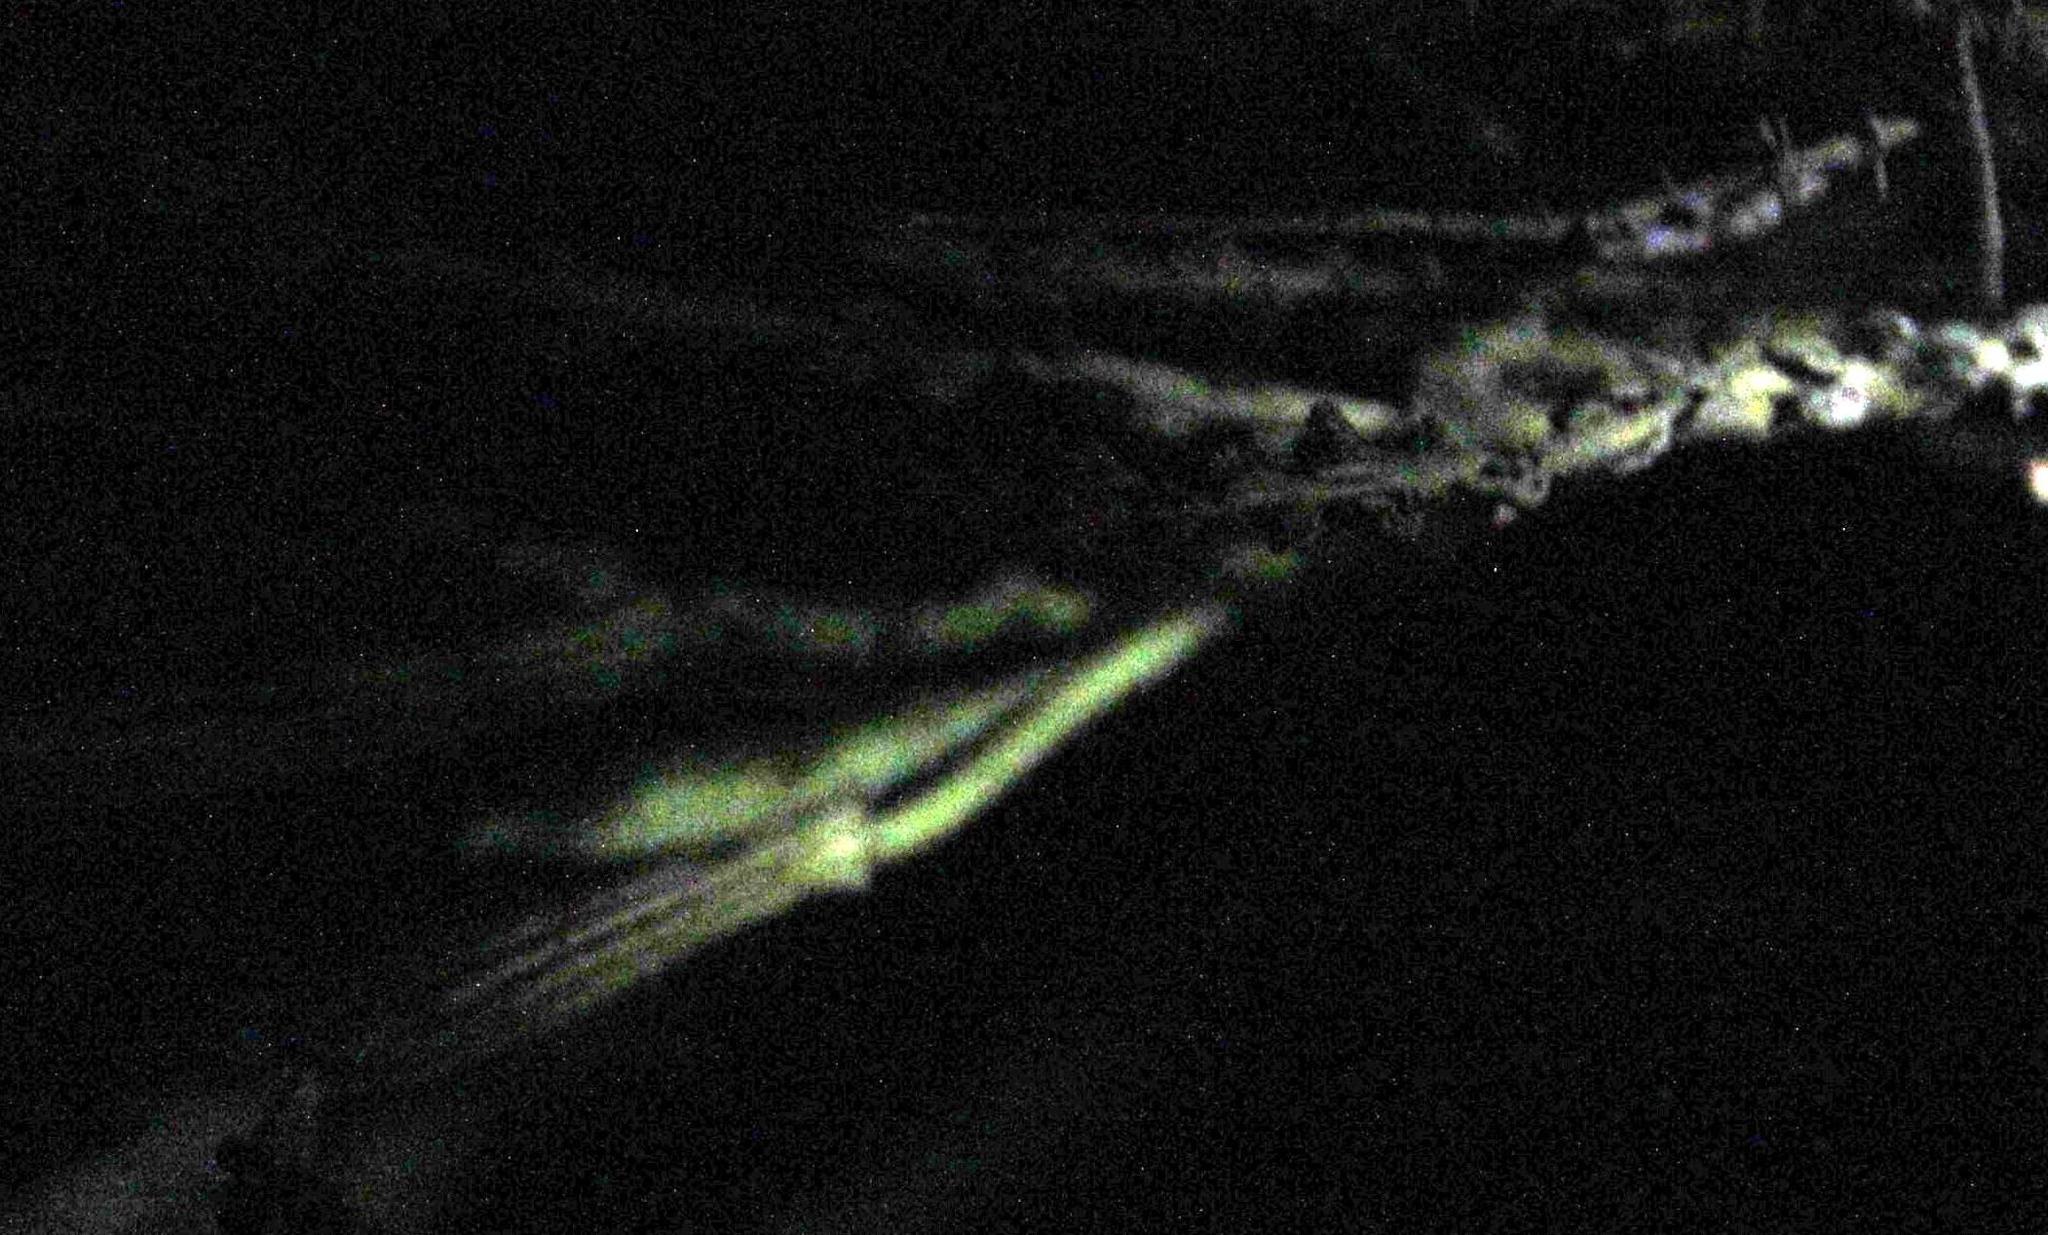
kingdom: Plantae
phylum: Tracheophyta
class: Magnoliopsida
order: Caryophyllales
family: Caryophyllaceae
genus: Silene
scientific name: Silene undulata
